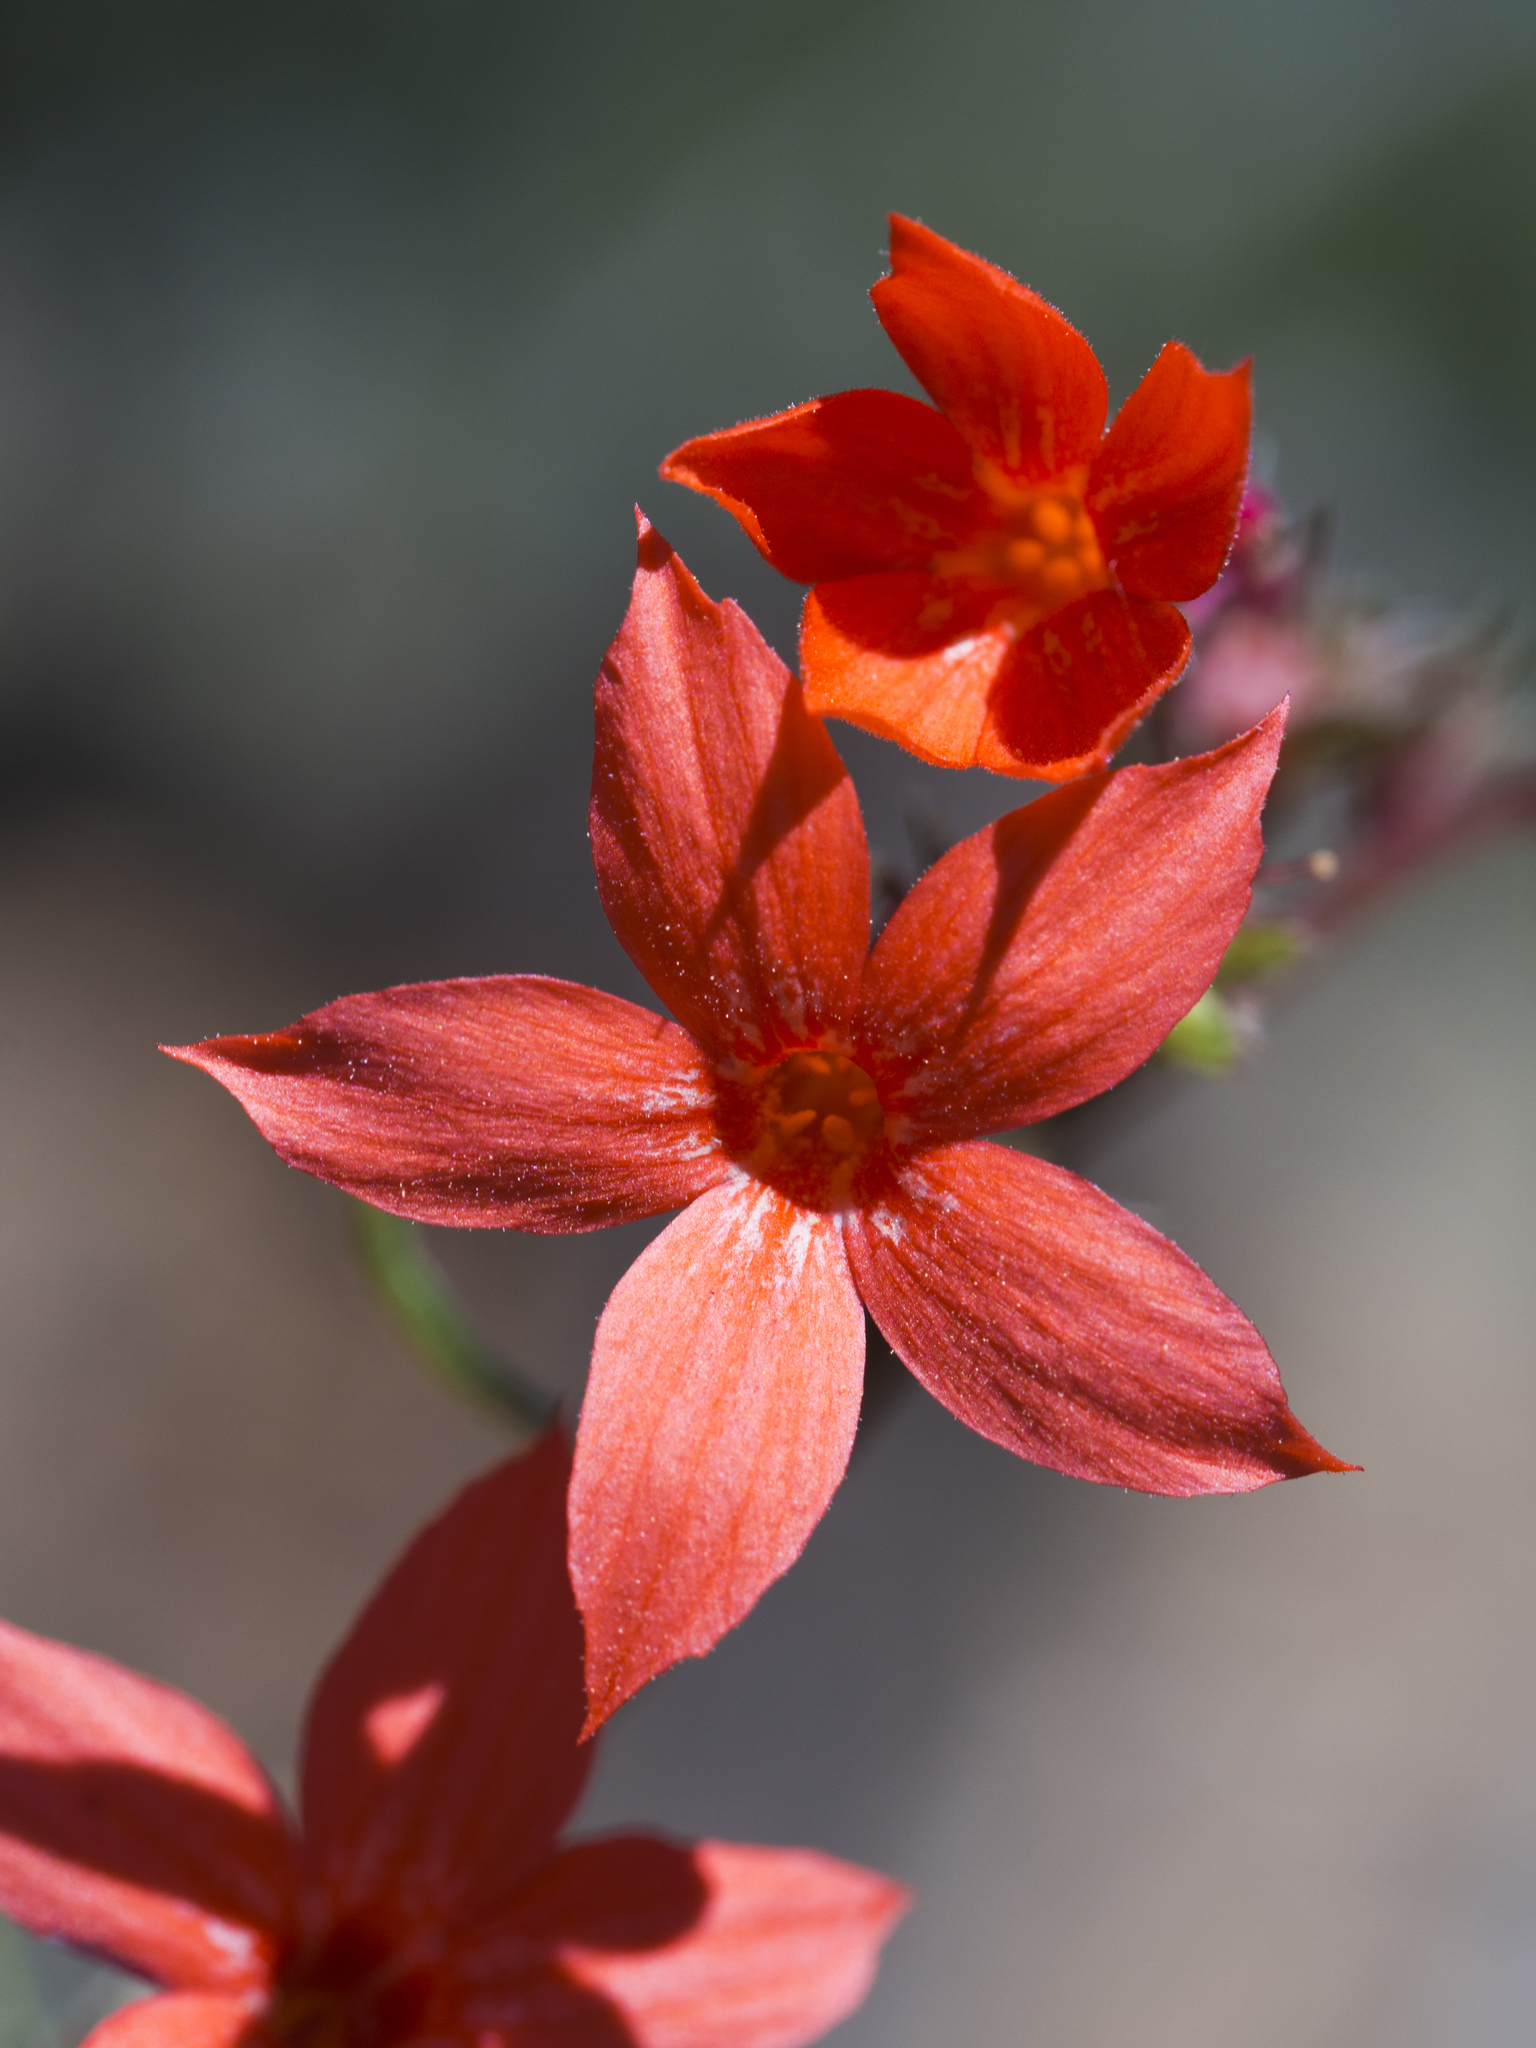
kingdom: Plantae
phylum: Tracheophyta
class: Magnoliopsida
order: Ericales
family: Polemoniaceae
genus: Ipomopsis
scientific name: Ipomopsis arizonica
